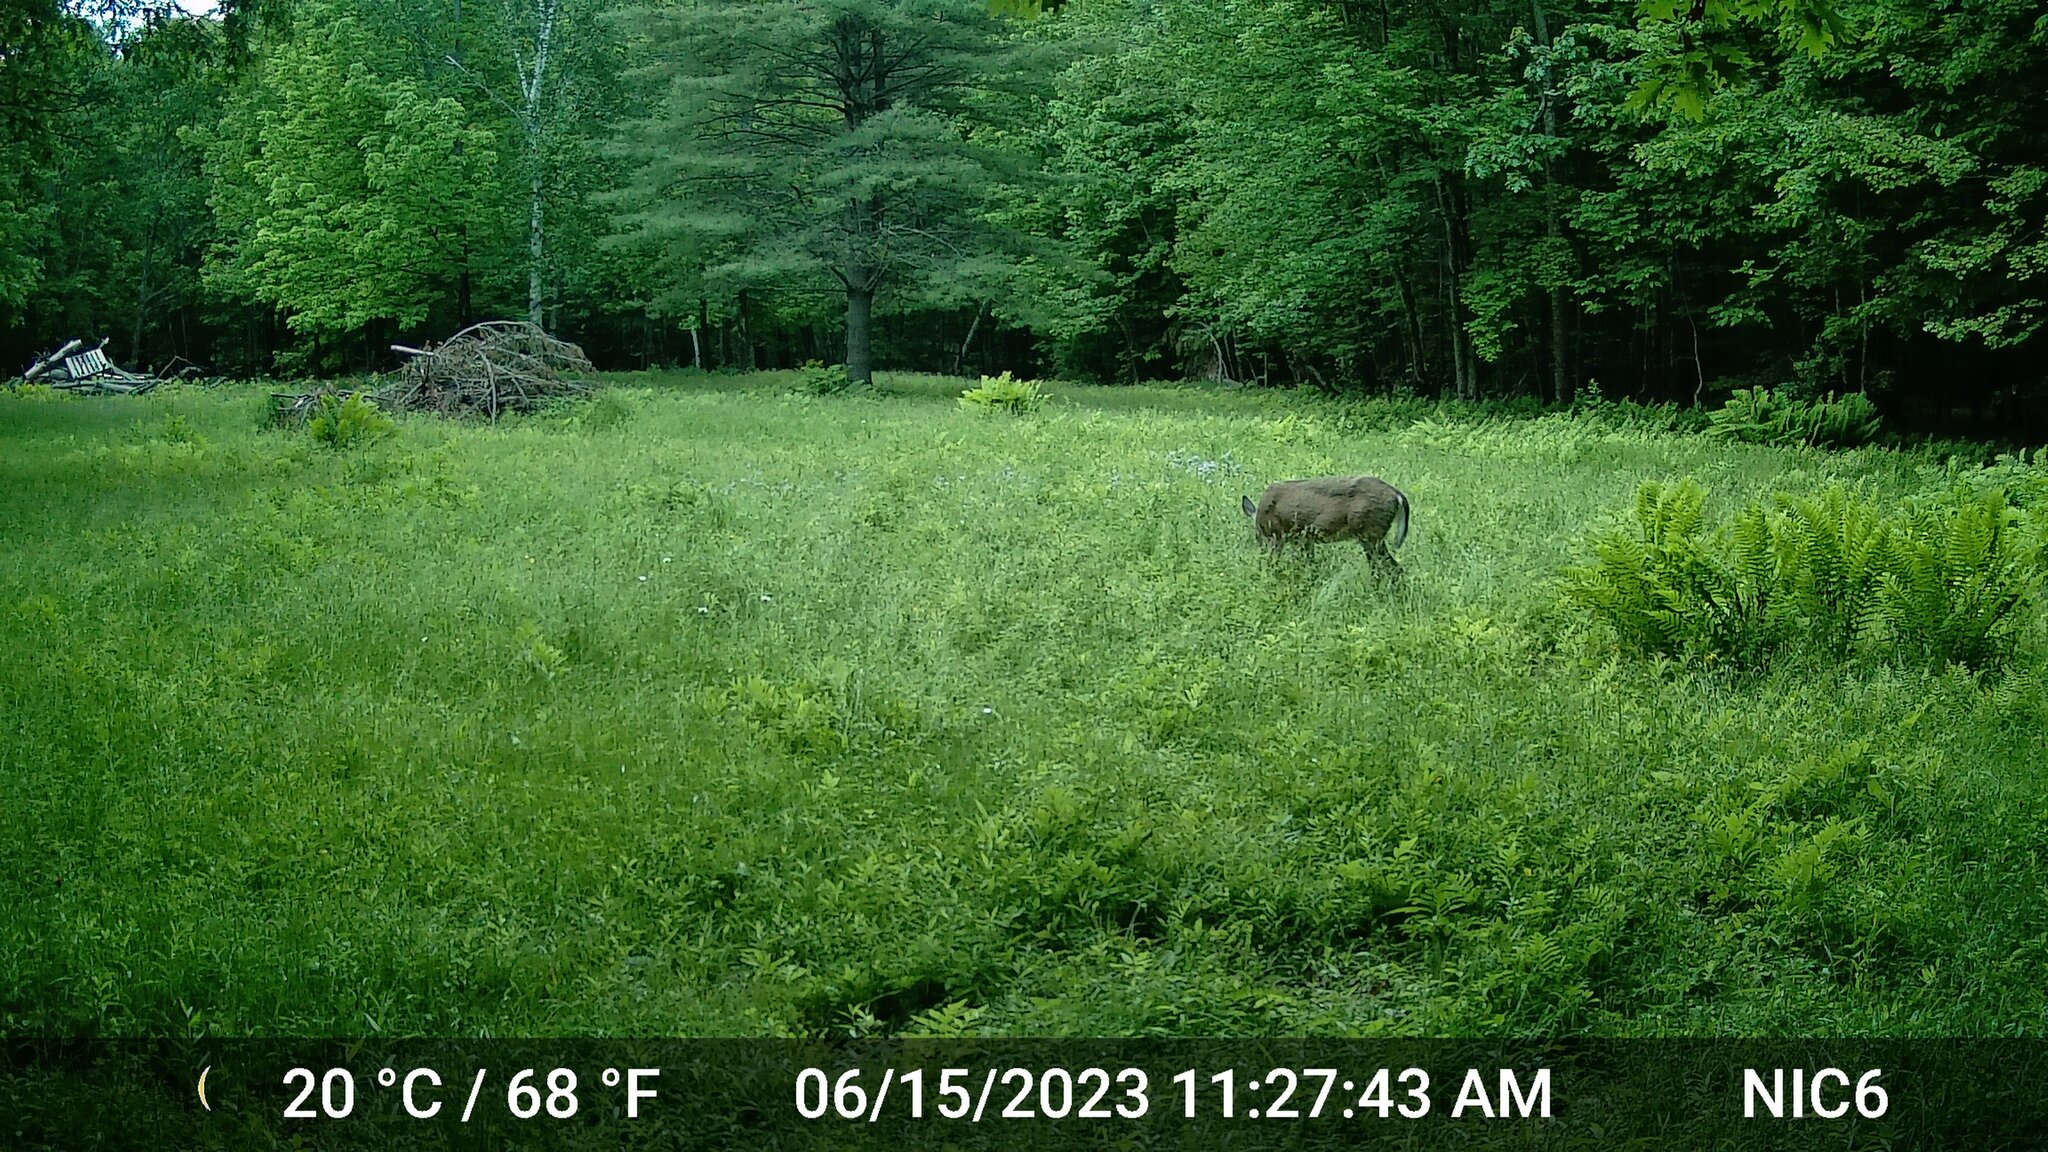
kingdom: Animalia
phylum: Chordata
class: Mammalia
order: Artiodactyla
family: Cervidae
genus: Odocoileus
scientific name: Odocoileus virginianus
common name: White-tailed deer
